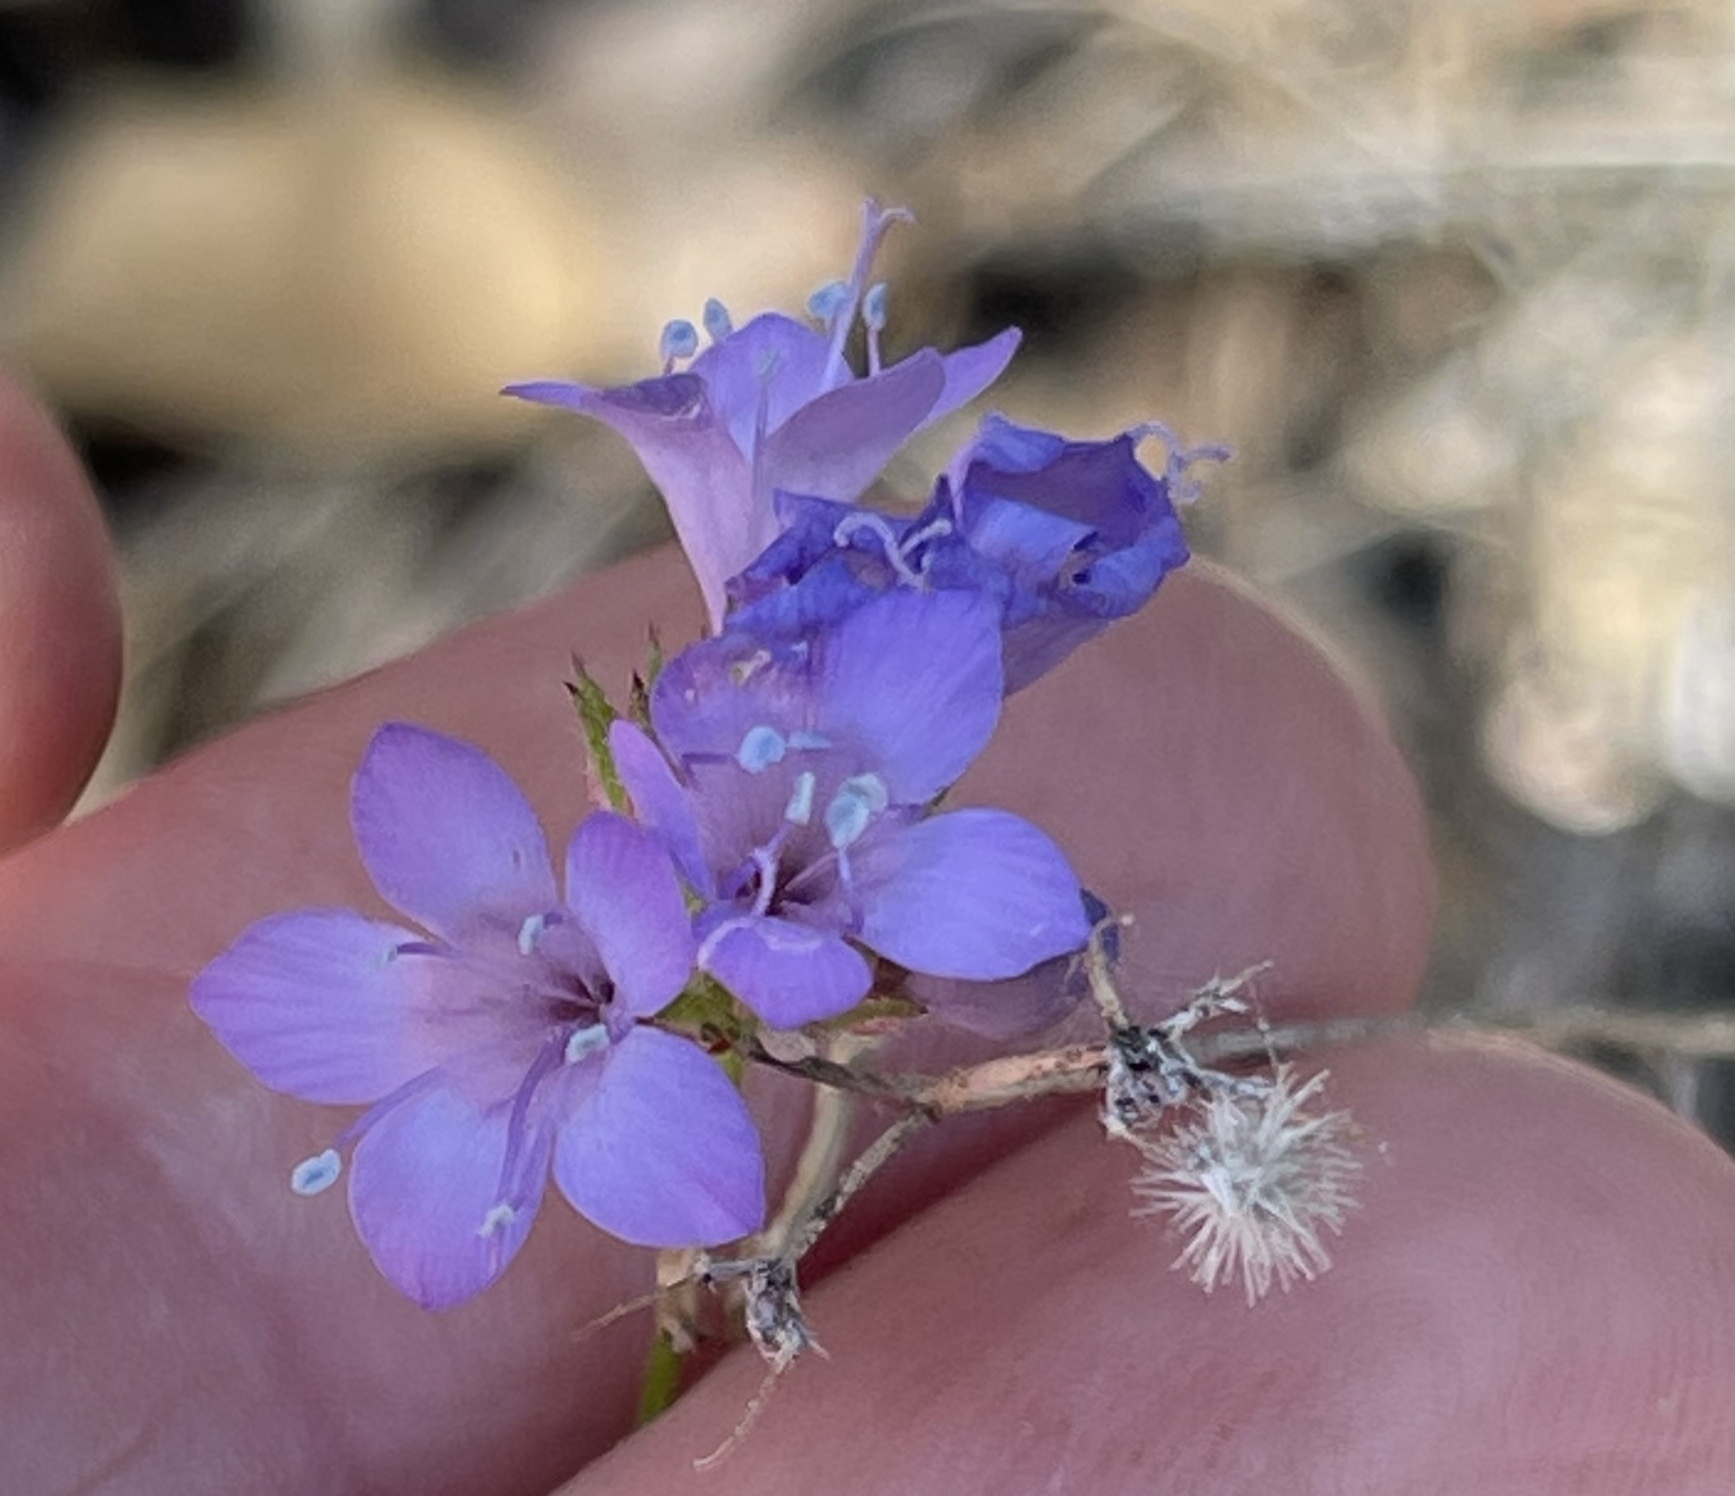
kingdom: Plantae
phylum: Tracheophyta
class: Magnoliopsida
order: Ericales
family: Polemoniaceae
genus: Gilia
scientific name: Gilia achilleifolia
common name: California gily-flower
